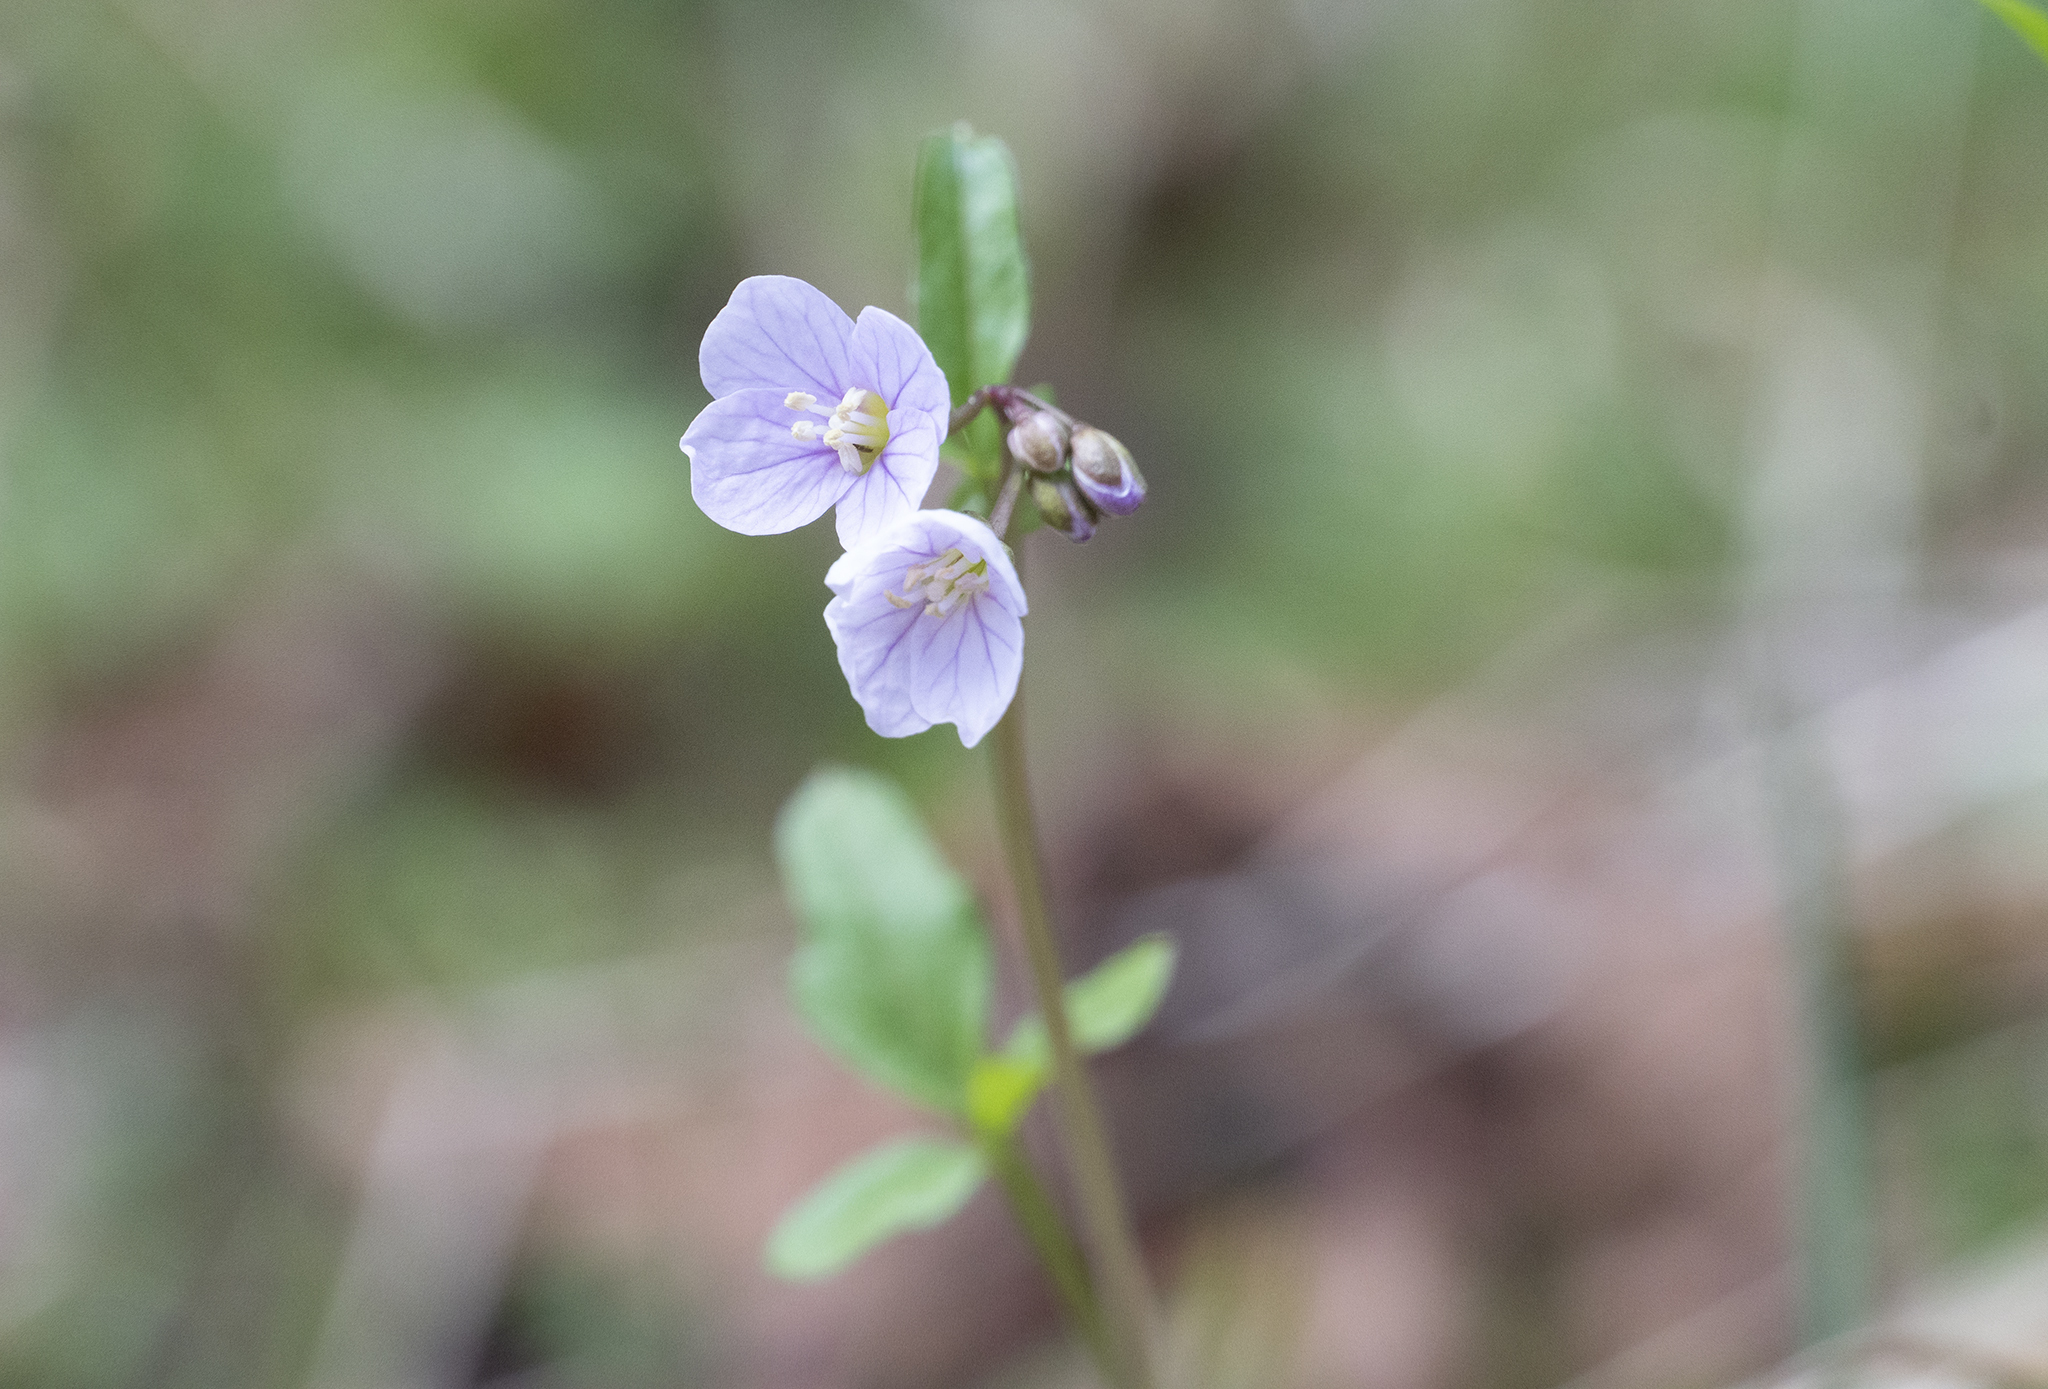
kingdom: Plantae
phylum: Tracheophyta
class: Magnoliopsida
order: Brassicales
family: Brassicaceae
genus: Cardamine
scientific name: Cardamine nuttallii
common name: Nuttall's toothwort
